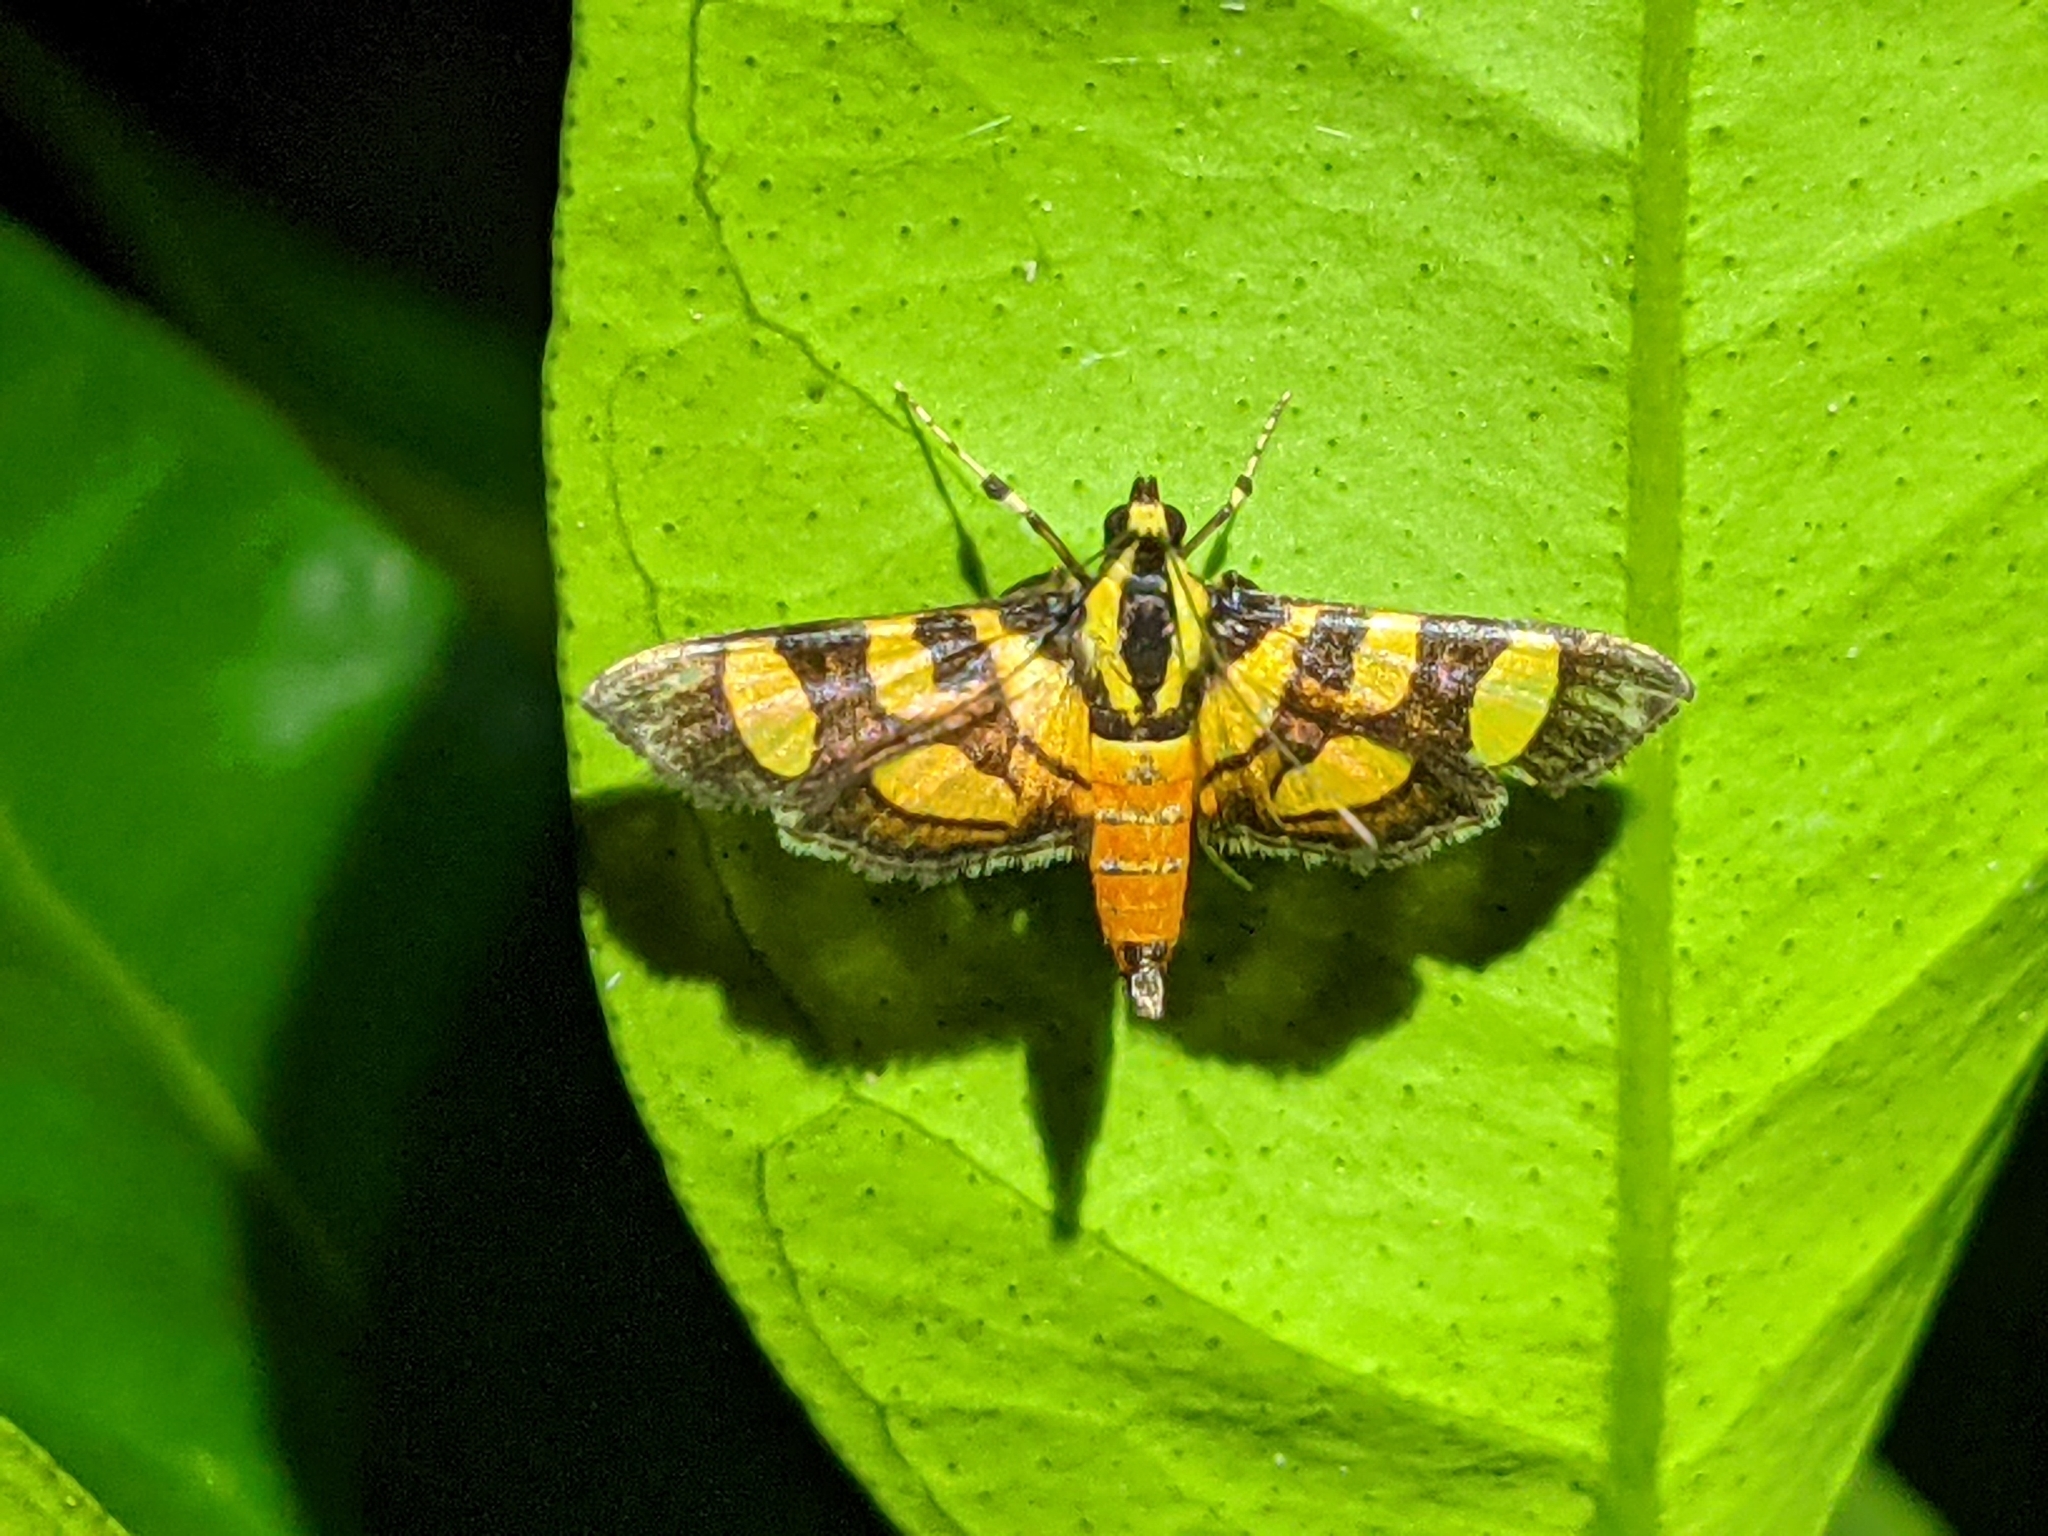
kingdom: Animalia
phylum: Arthropoda
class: Insecta
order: Lepidoptera
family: Crambidae
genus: Syngamia
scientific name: Syngamia florella
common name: Orange-spotted flower moth
